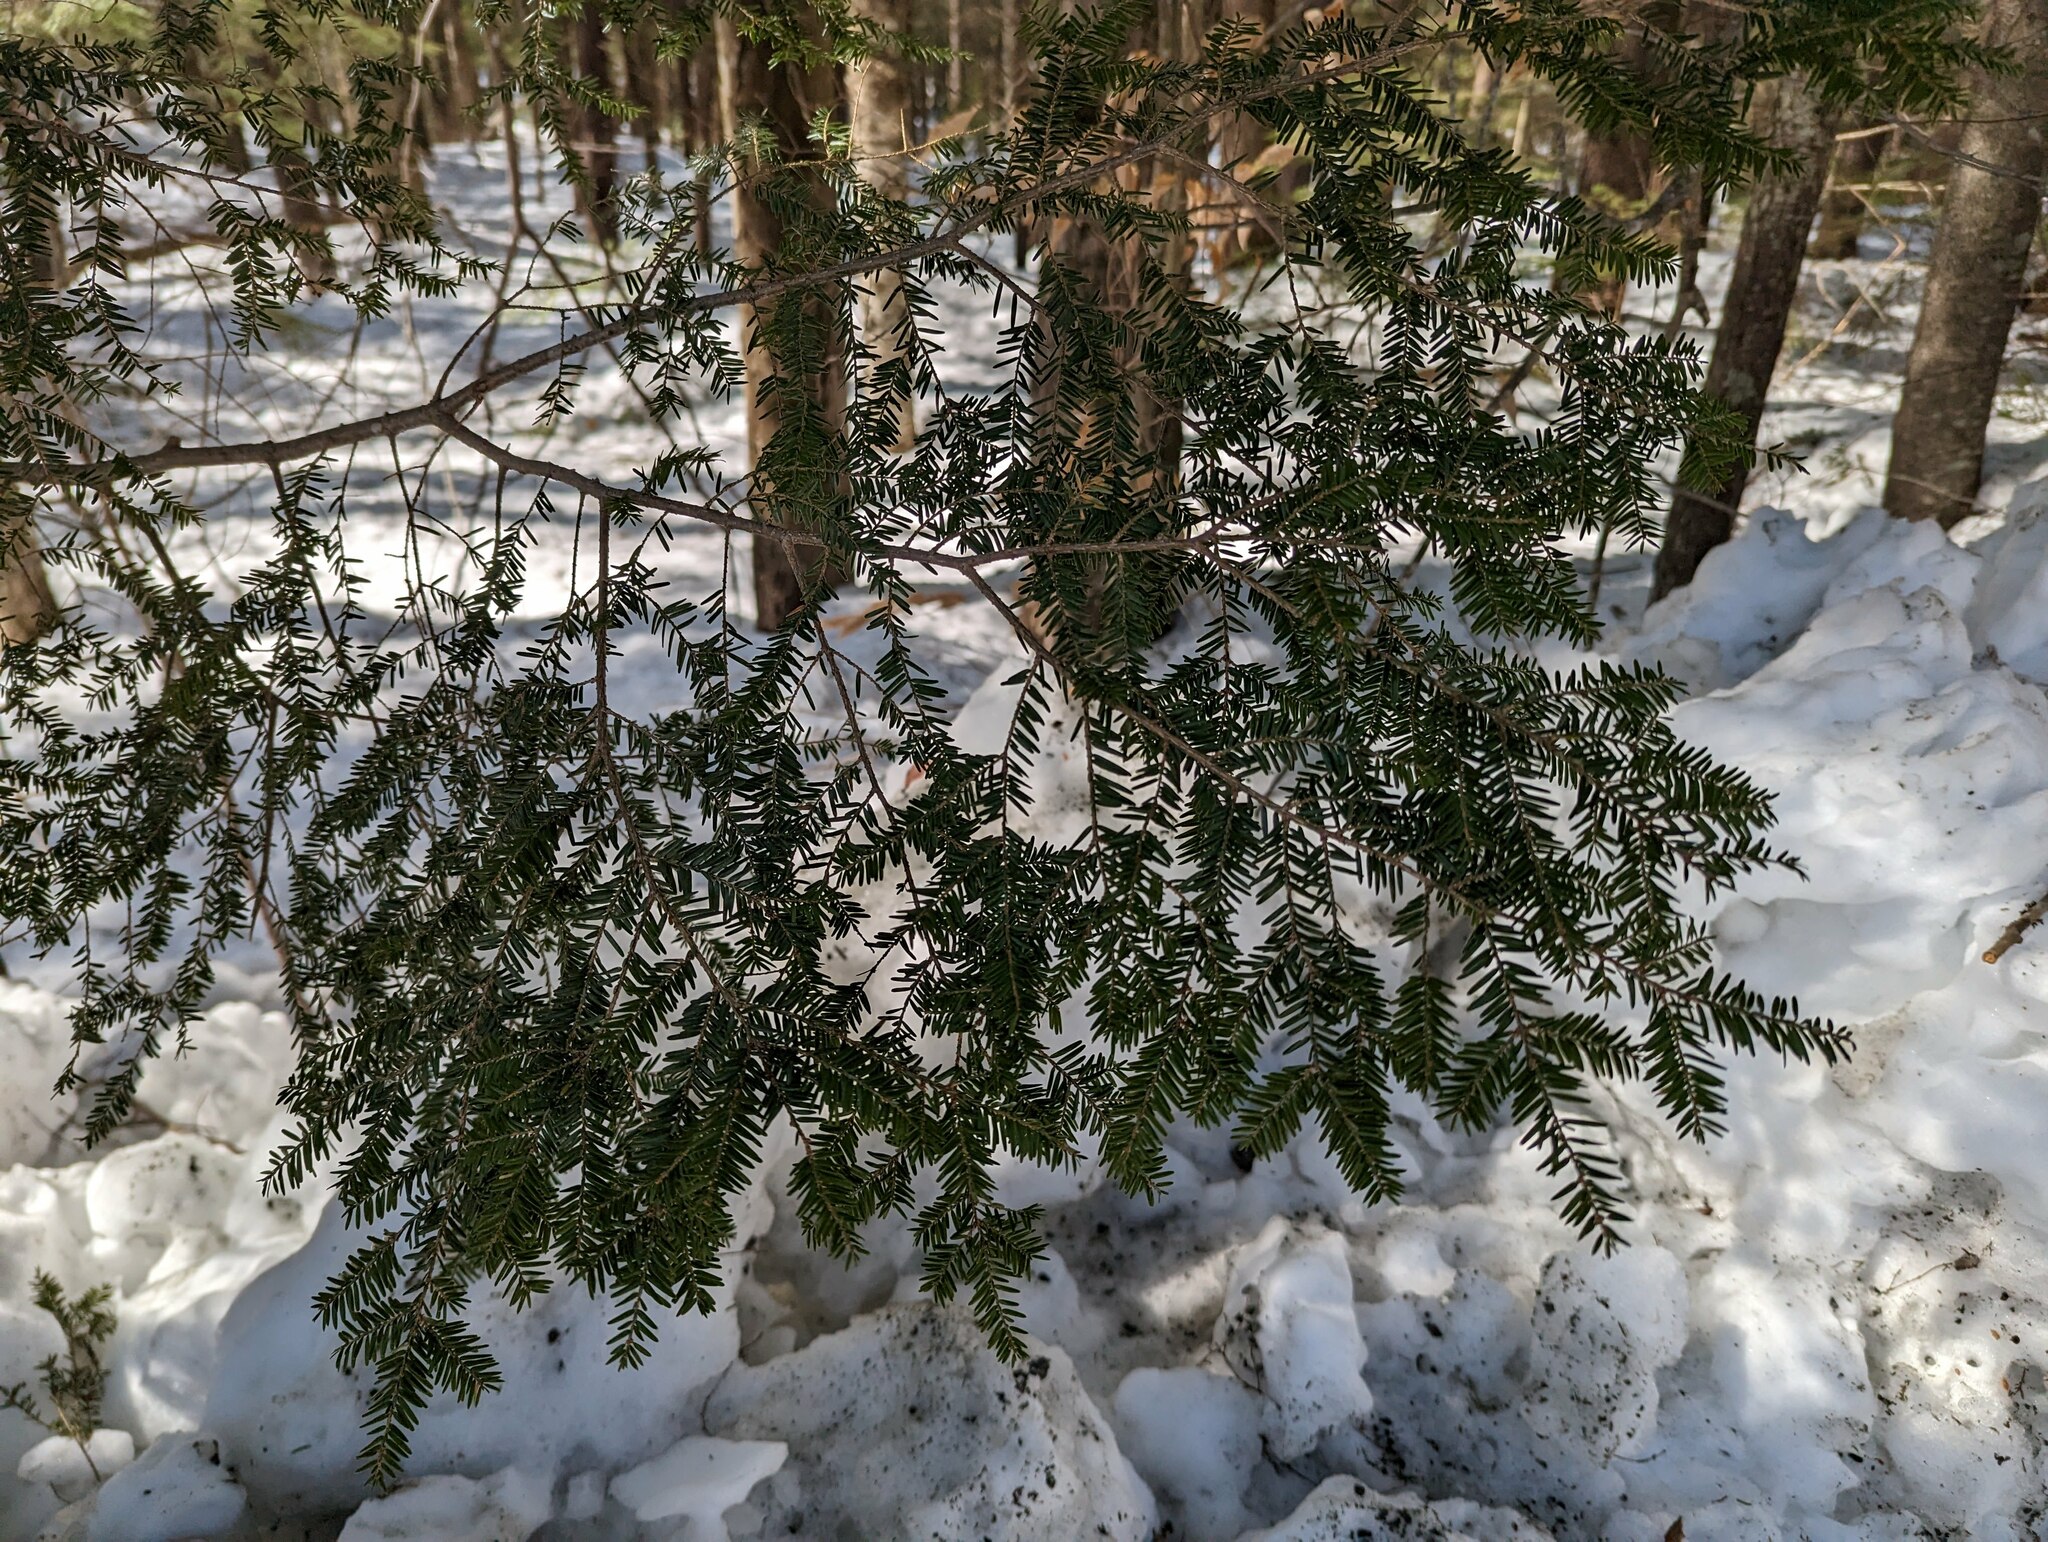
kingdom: Plantae
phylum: Tracheophyta
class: Pinopsida
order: Pinales
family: Pinaceae
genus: Tsuga
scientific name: Tsuga canadensis
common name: Eastern hemlock
